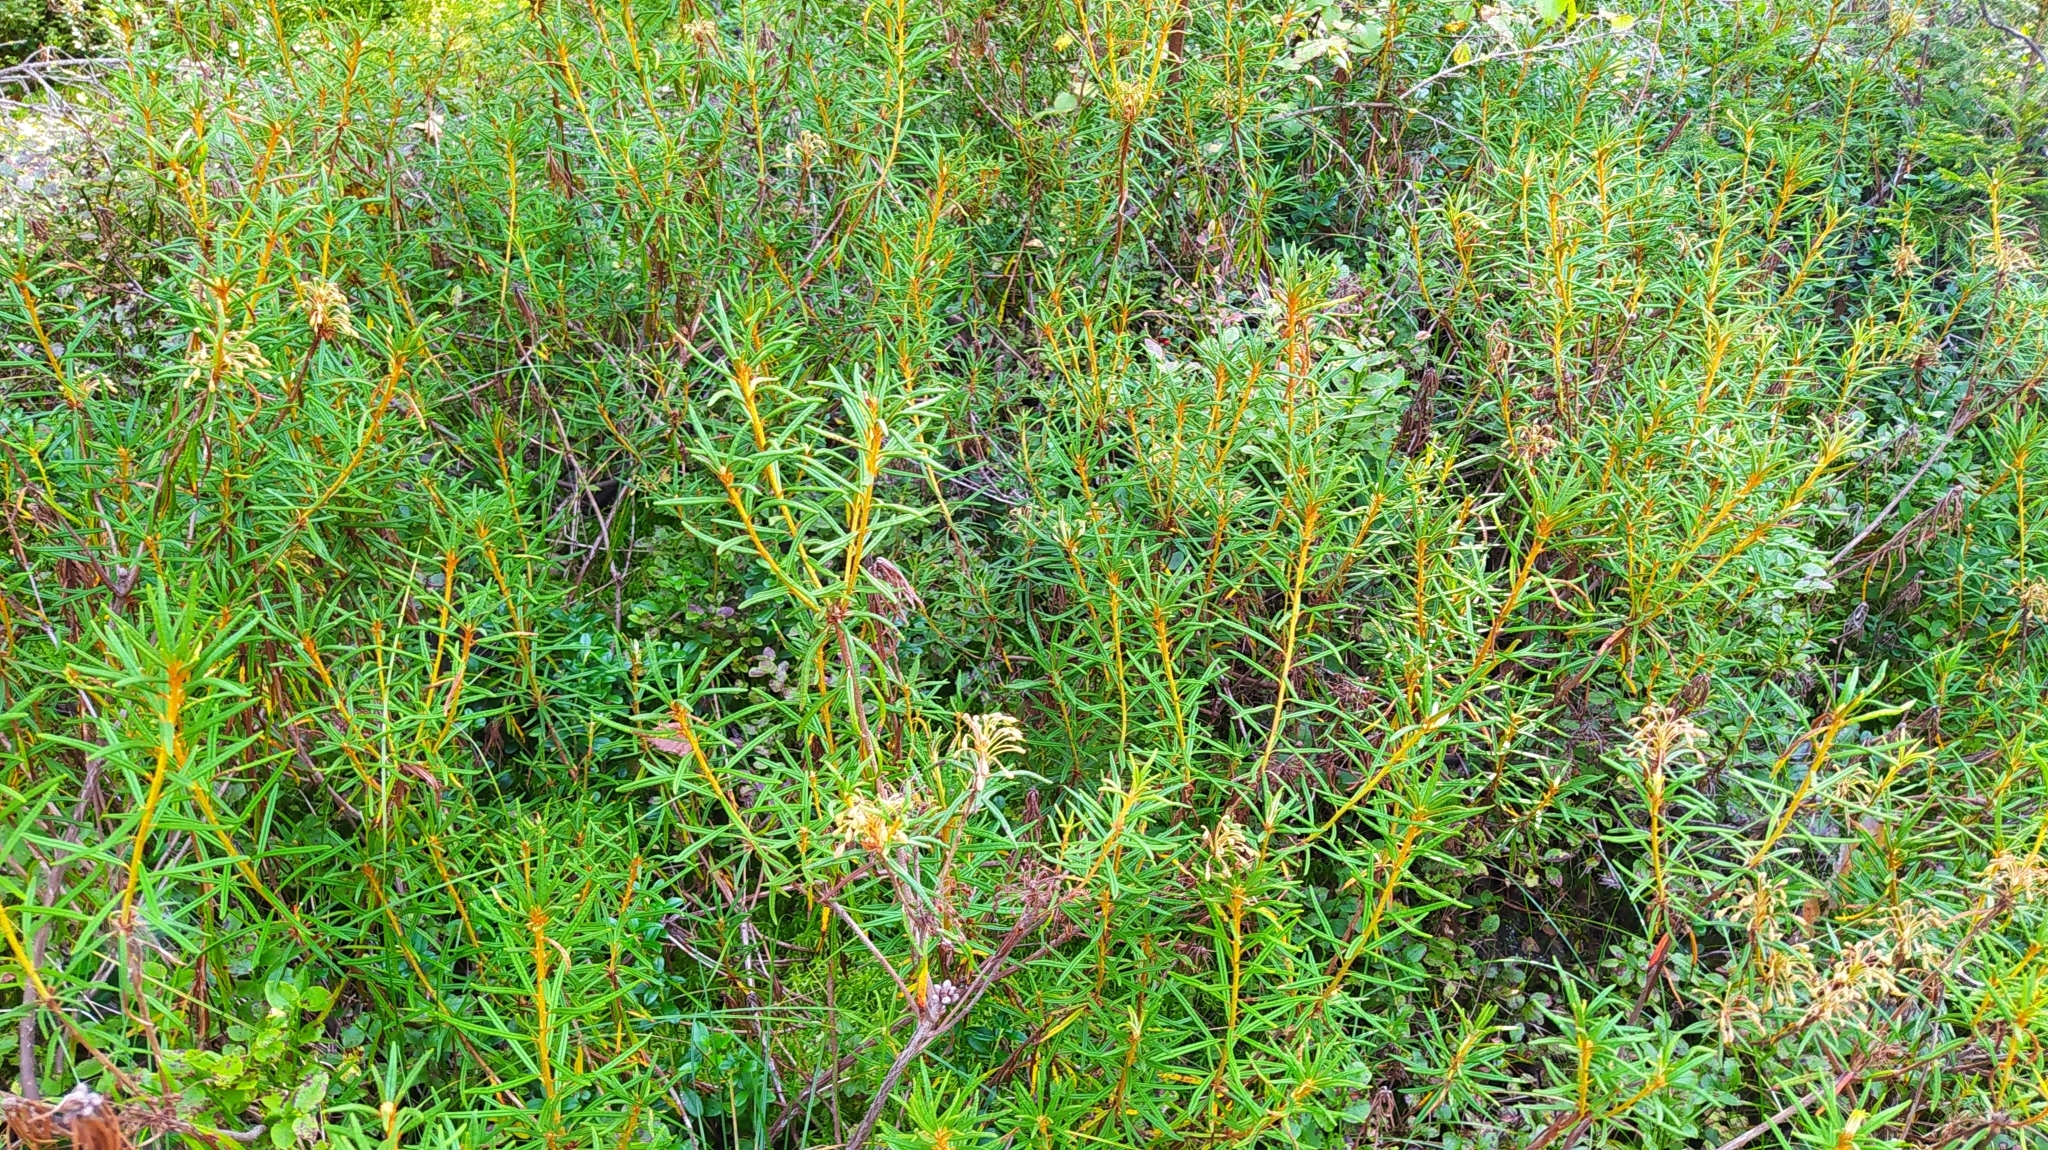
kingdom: Plantae
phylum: Tracheophyta
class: Magnoliopsida
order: Ericales
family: Ericaceae
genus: Rhododendron
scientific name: Rhododendron tomentosum
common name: Marsh labrador tea
